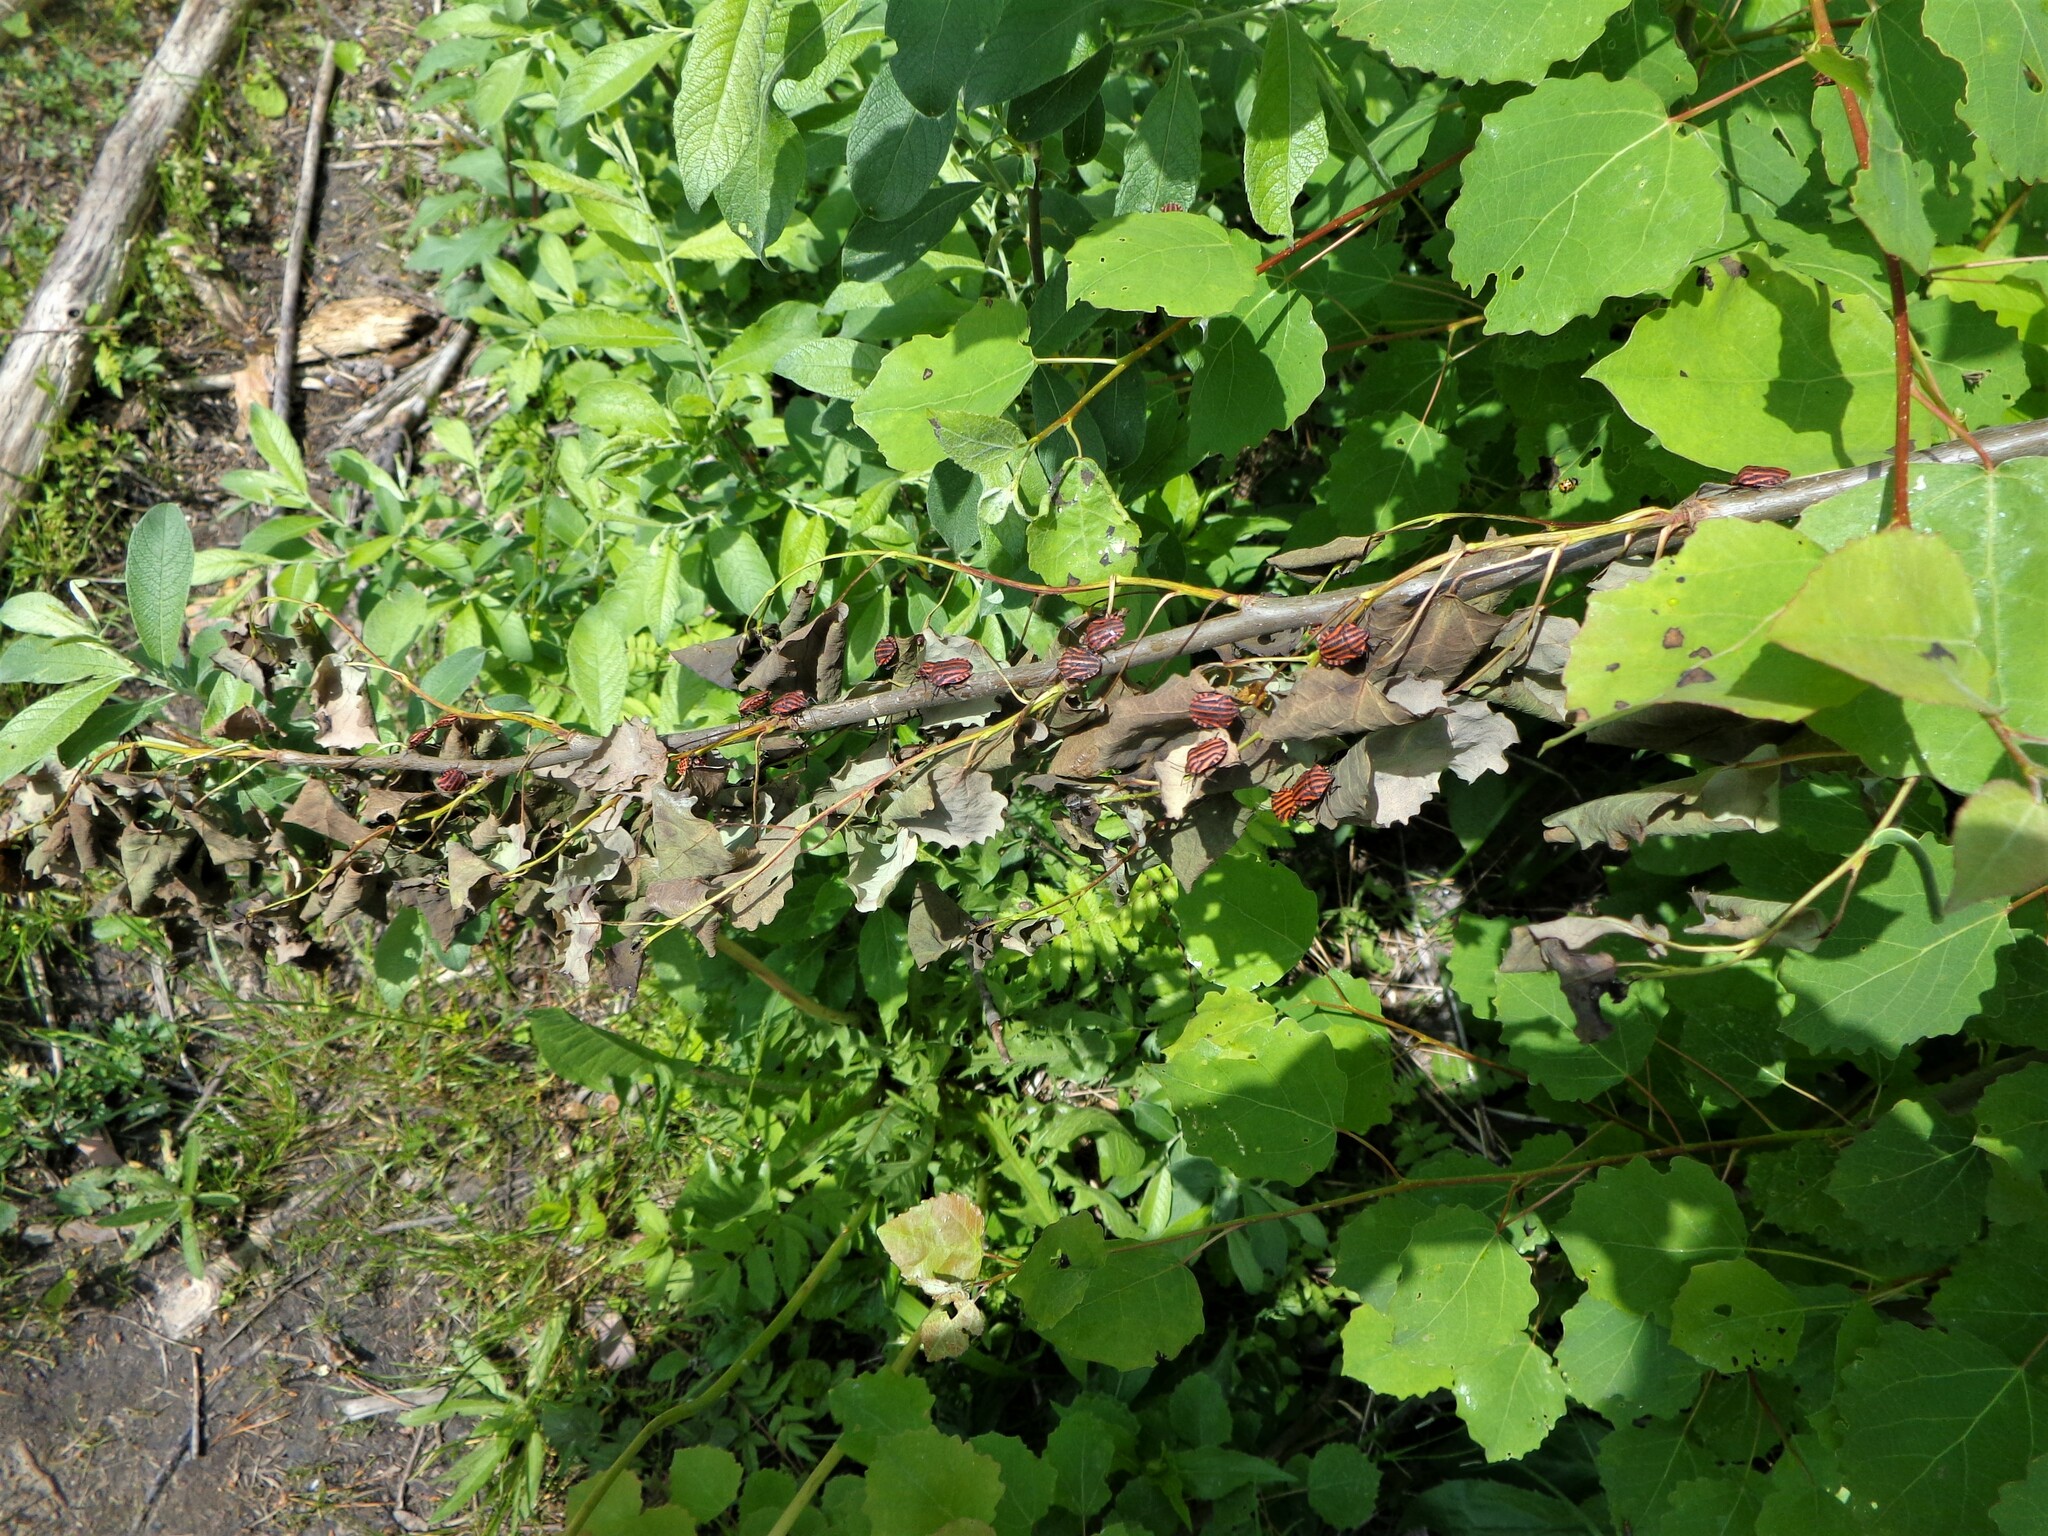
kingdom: Animalia
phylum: Arthropoda
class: Insecta
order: Hemiptera
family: Pentatomidae
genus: Graphosoma
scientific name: Graphosoma italicum
